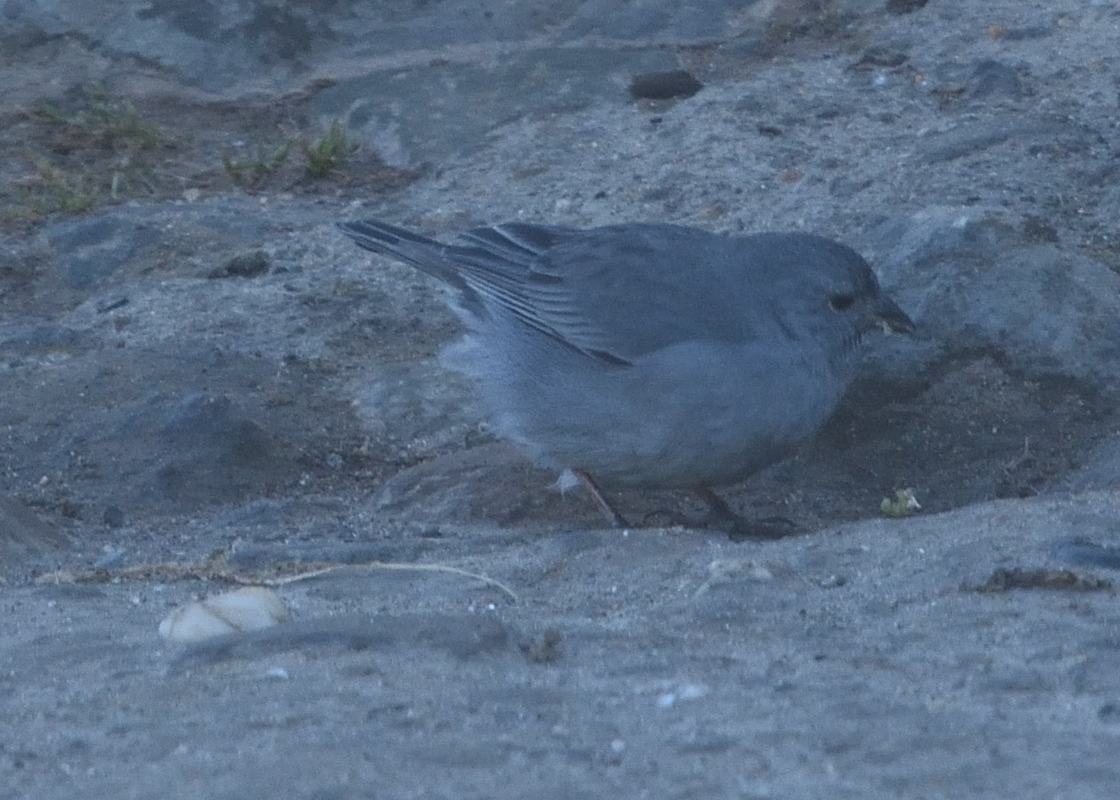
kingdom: Animalia
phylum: Chordata
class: Aves
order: Passeriformes
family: Thraupidae
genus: Geospizopsis
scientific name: Geospizopsis unicolor
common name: Plumbeous sierra-finch
